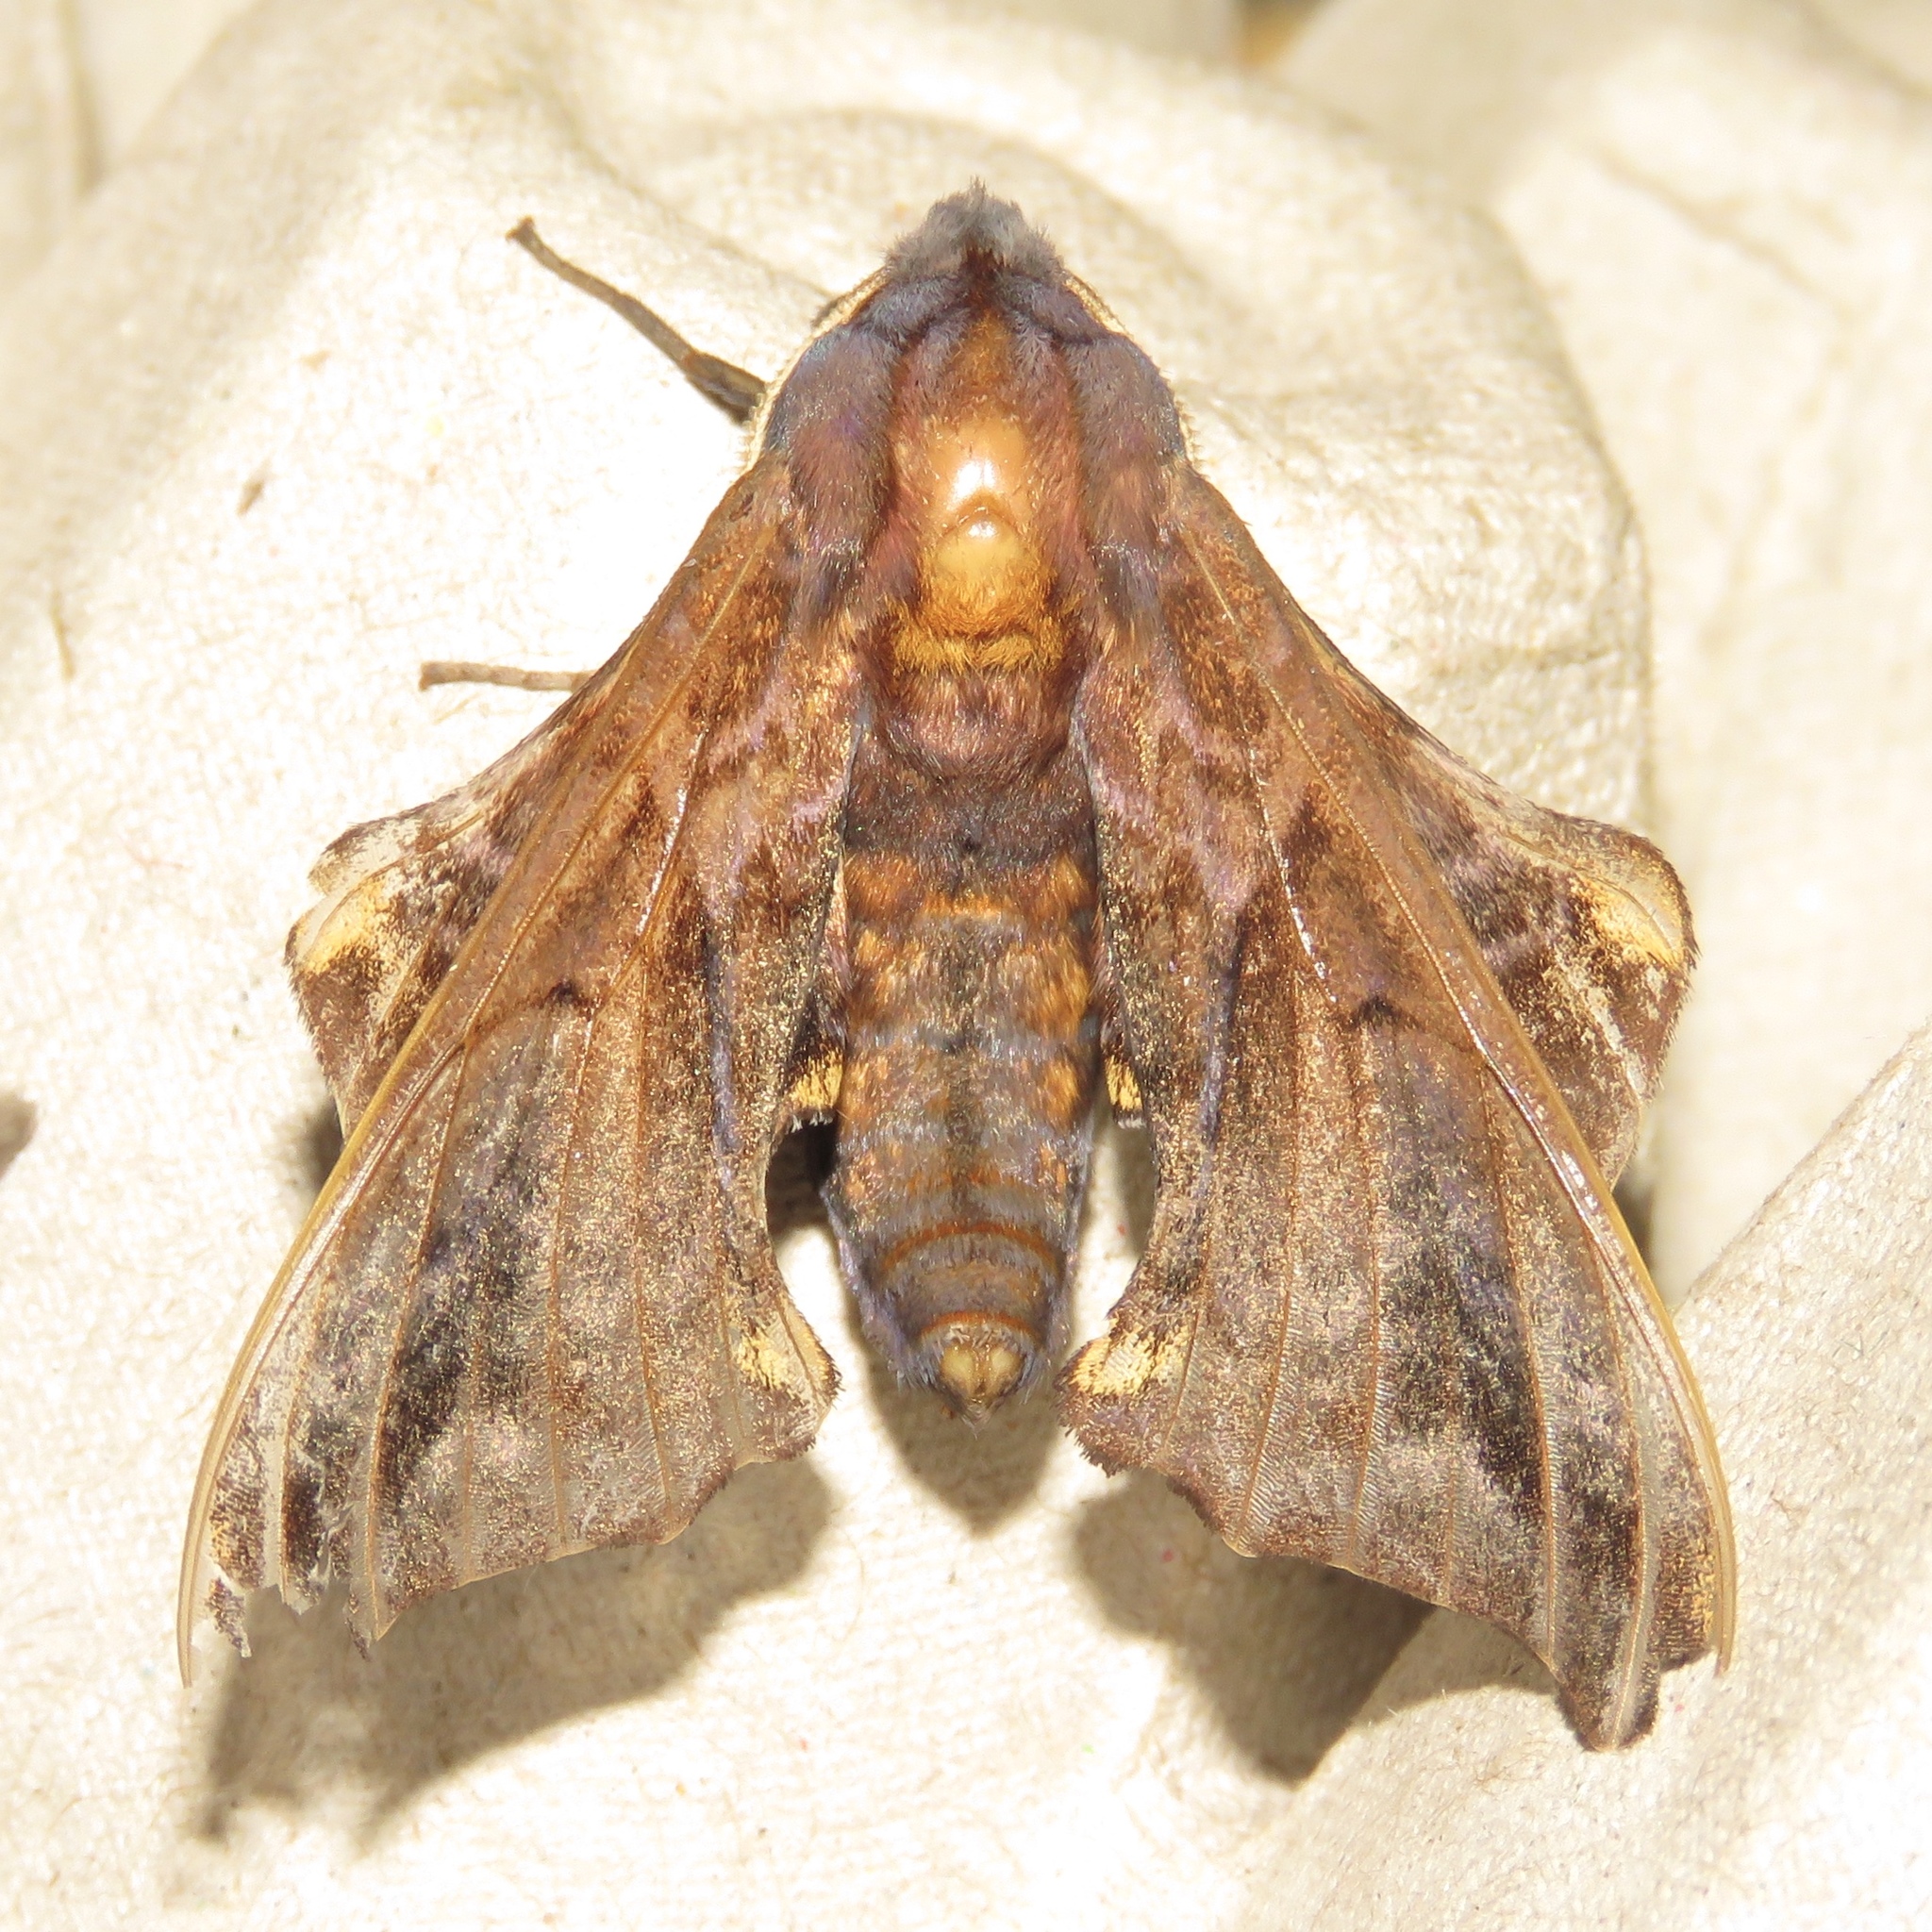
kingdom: Animalia
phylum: Arthropoda
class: Insecta
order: Lepidoptera
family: Sphingidae
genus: Paonias
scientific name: Paonias myops
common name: Small-eyed sphinx
